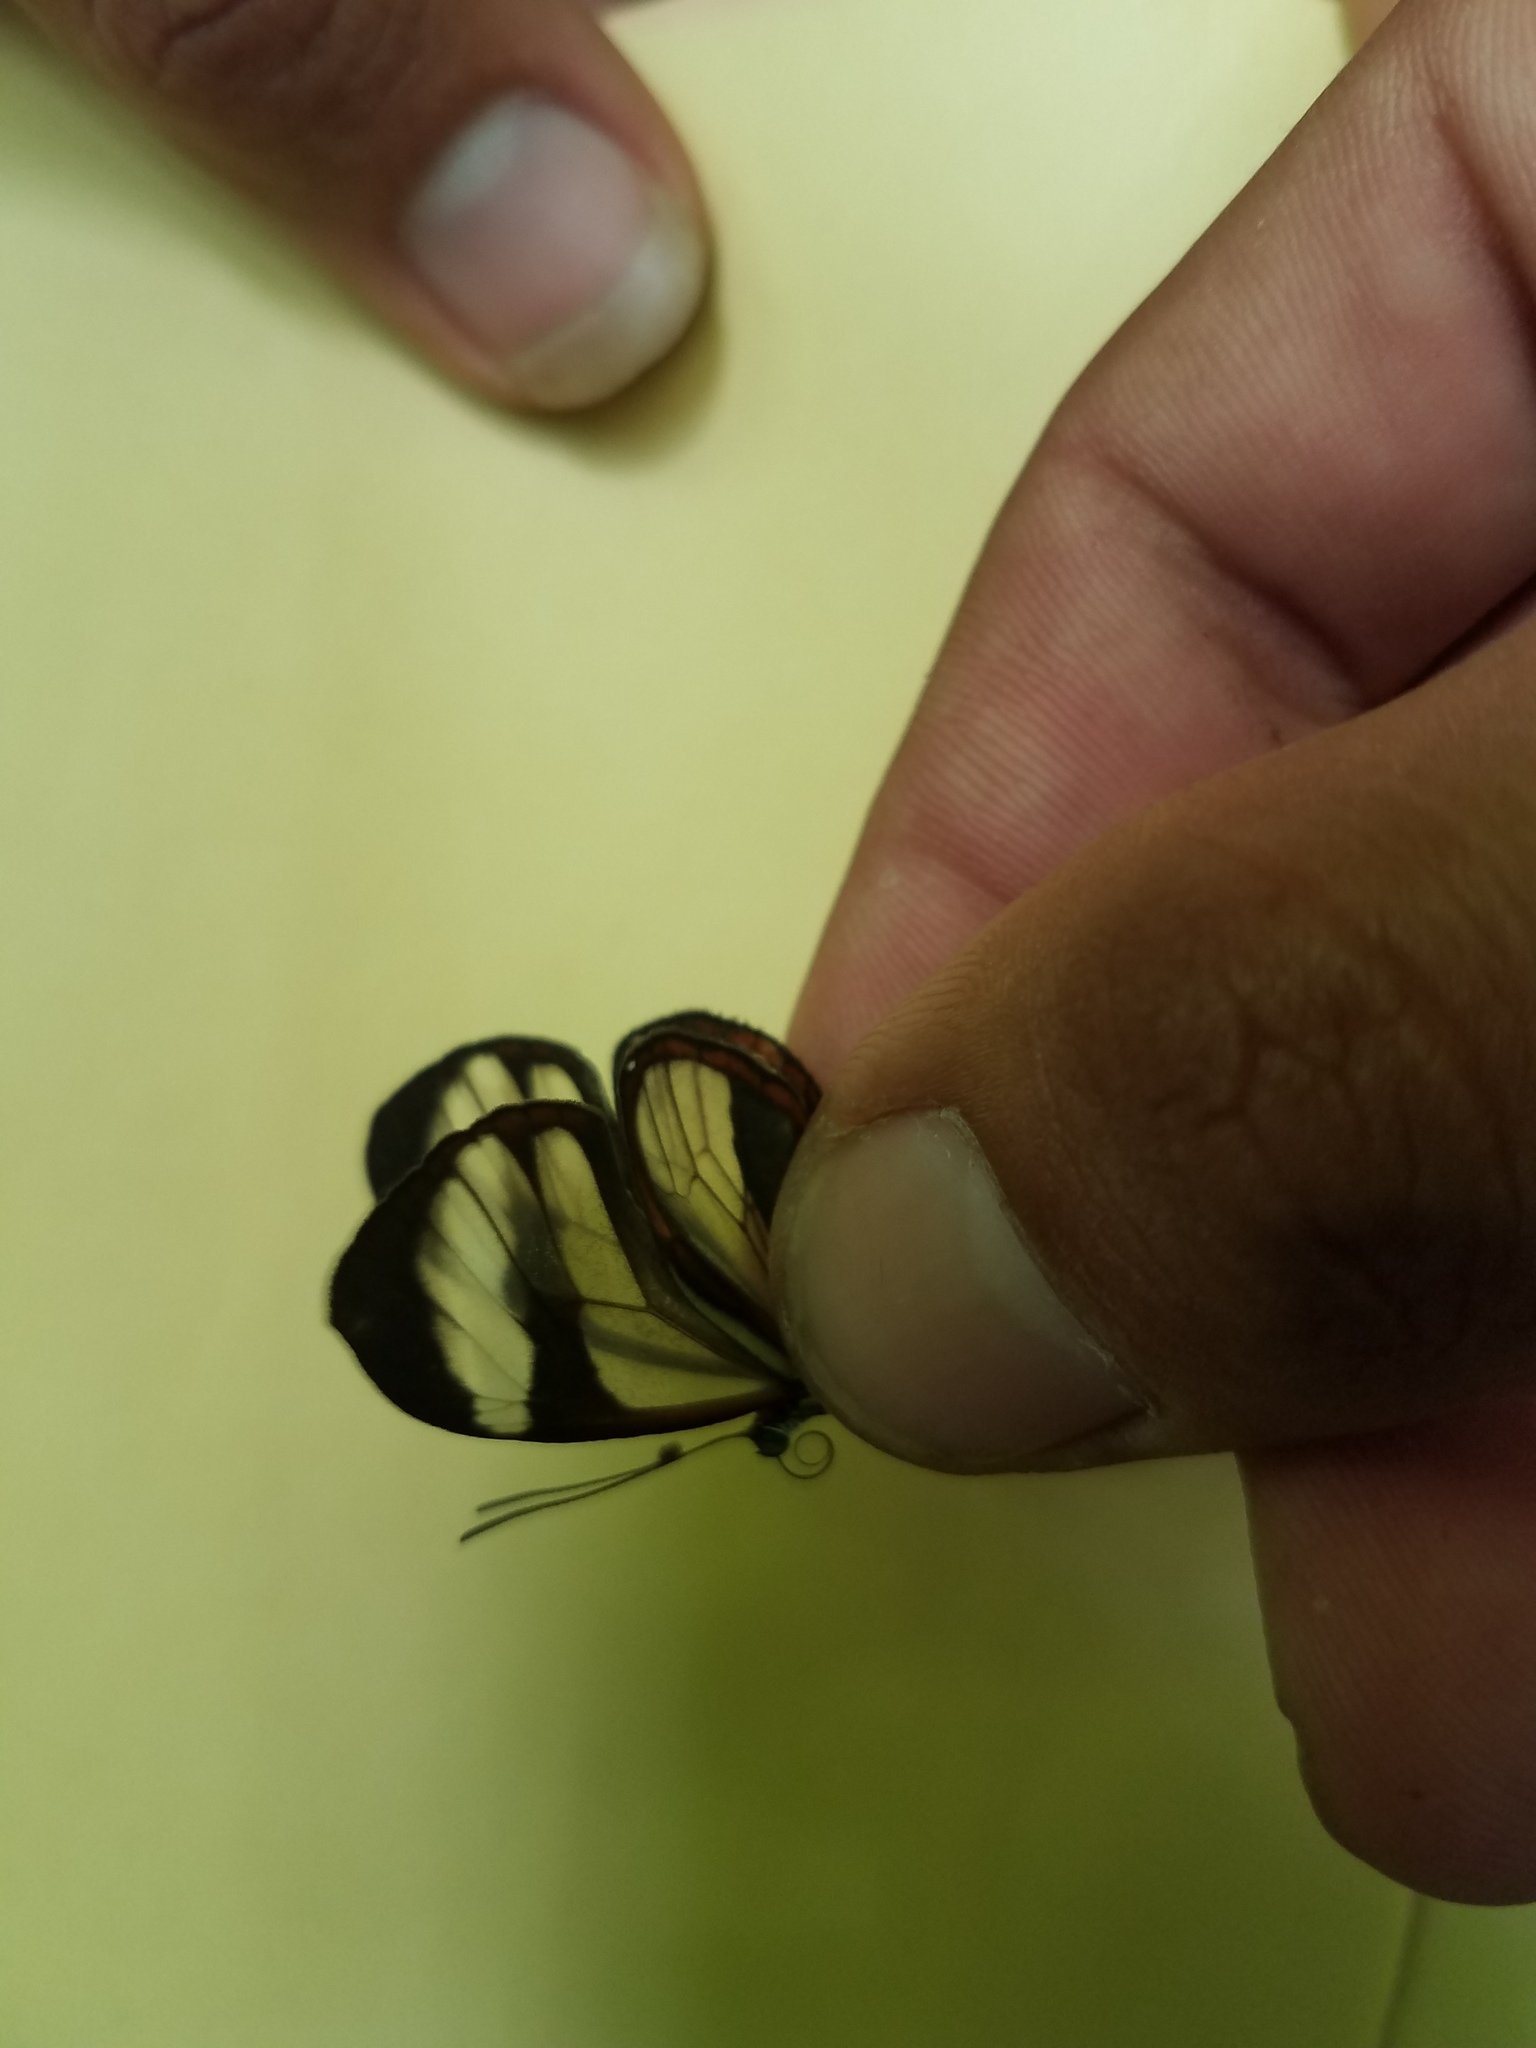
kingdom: Animalia
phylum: Arthropoda
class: Insecta
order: Lepidoptera
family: Nymphalidae
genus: Ithomia
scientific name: Ithomia patilla
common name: Patilla clearwing
